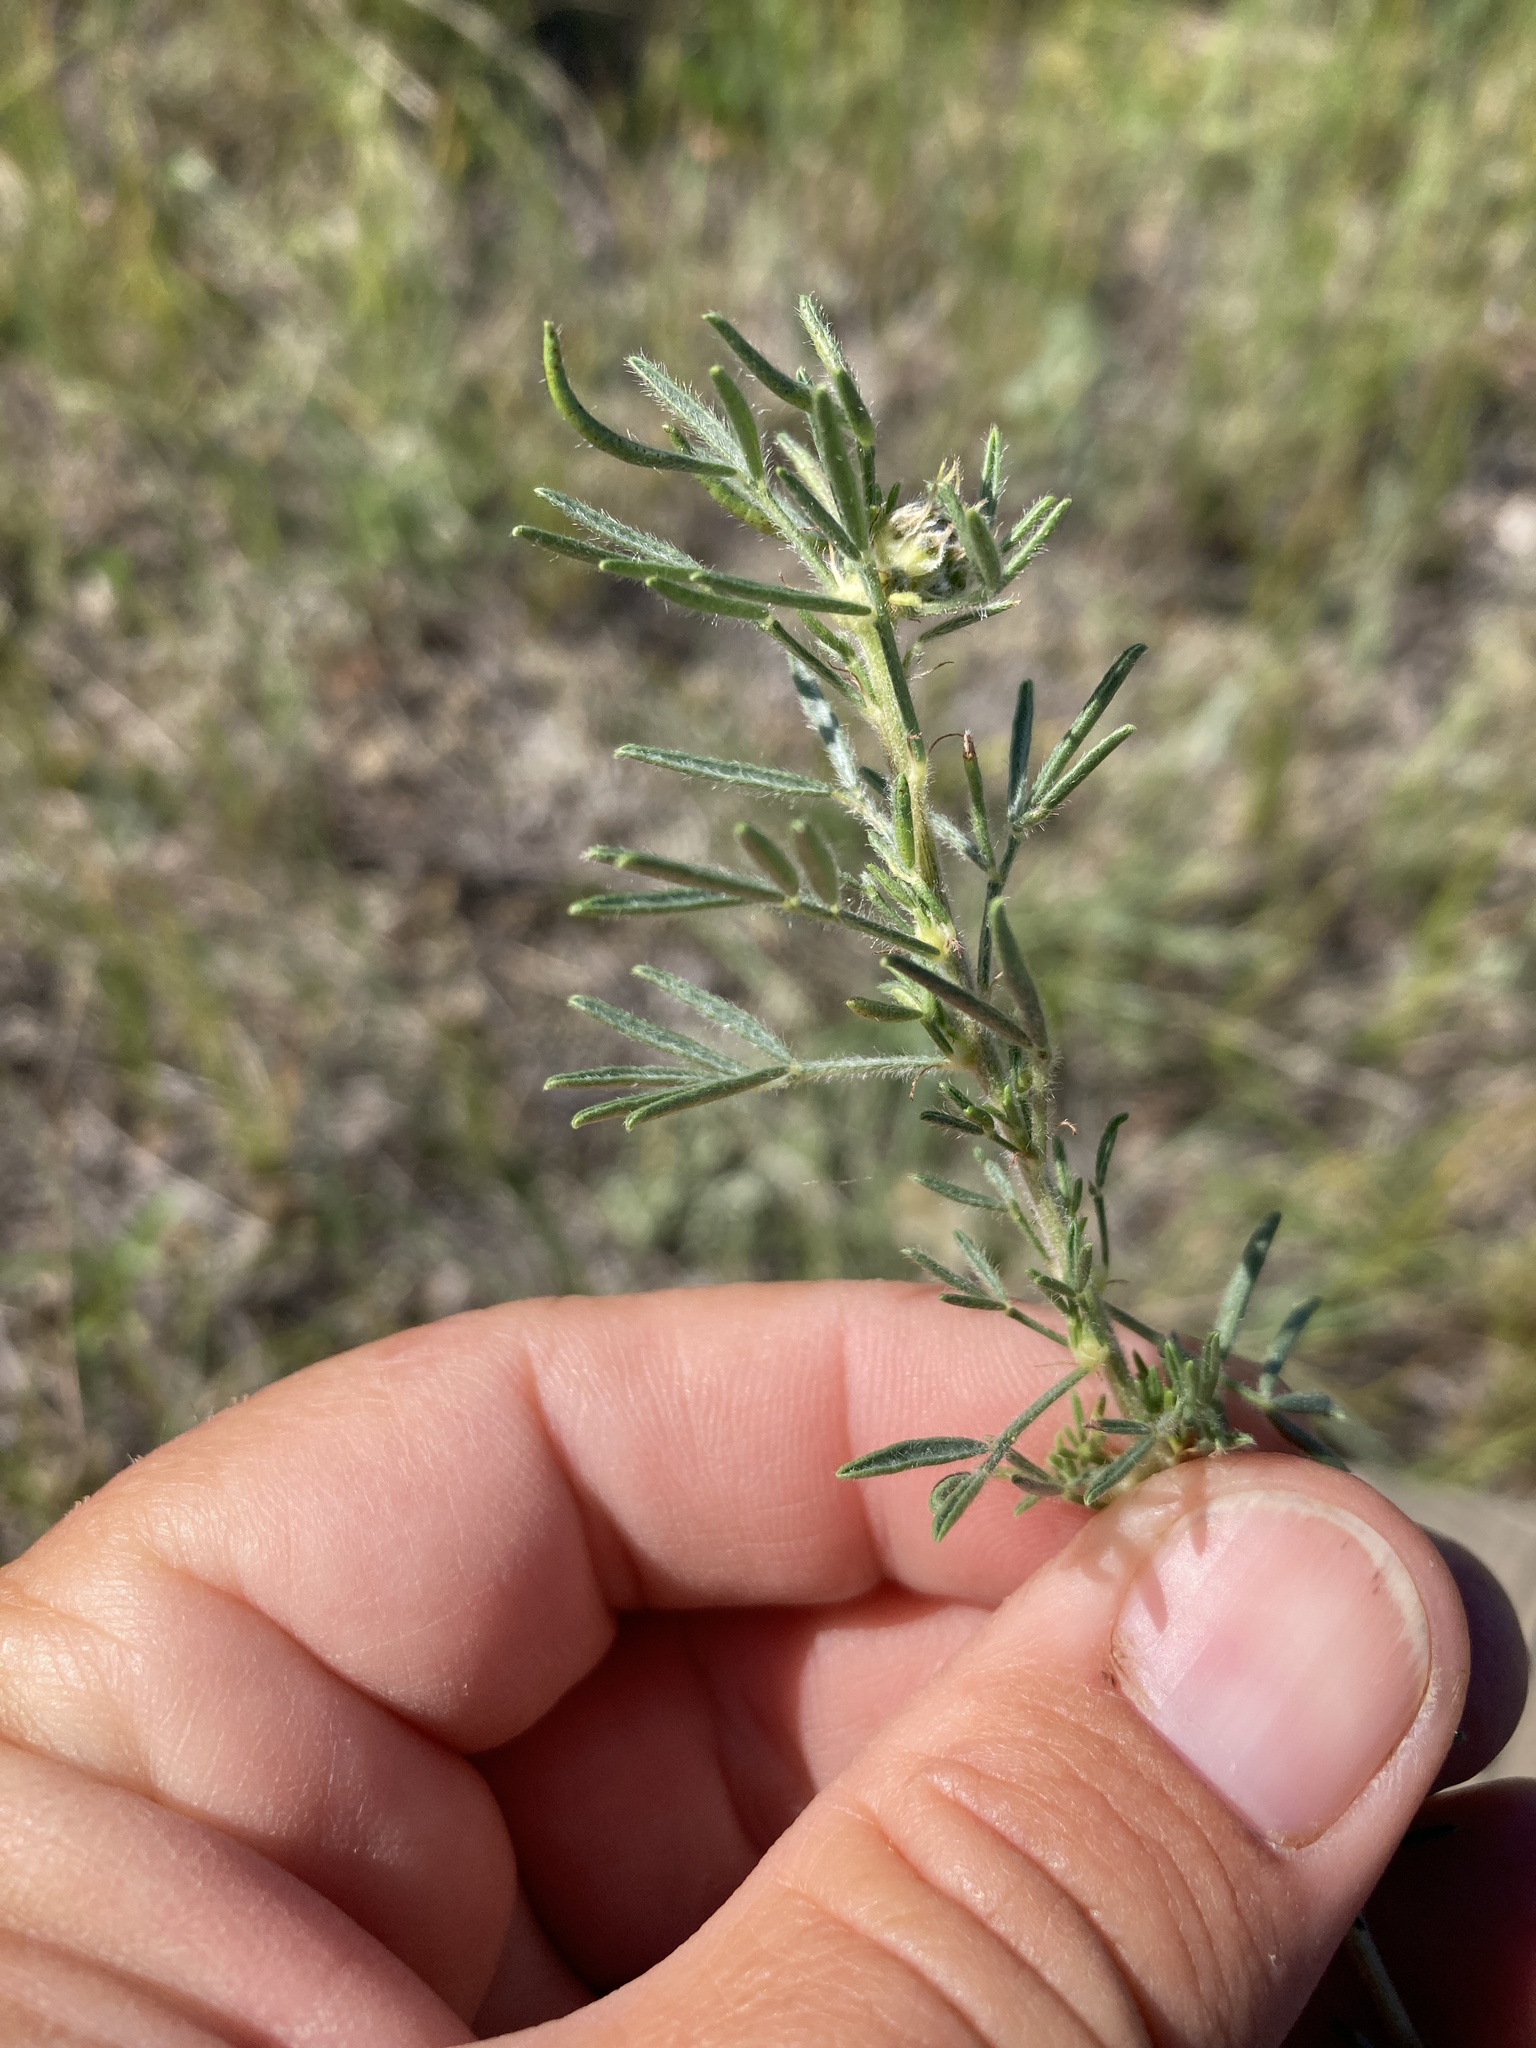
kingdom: Plantae
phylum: Tracheophyta
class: Magnoliopsida
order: Fabales
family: Fabaceae
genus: Dalea
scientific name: Dalea purpurea
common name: Purple prairie-clover
